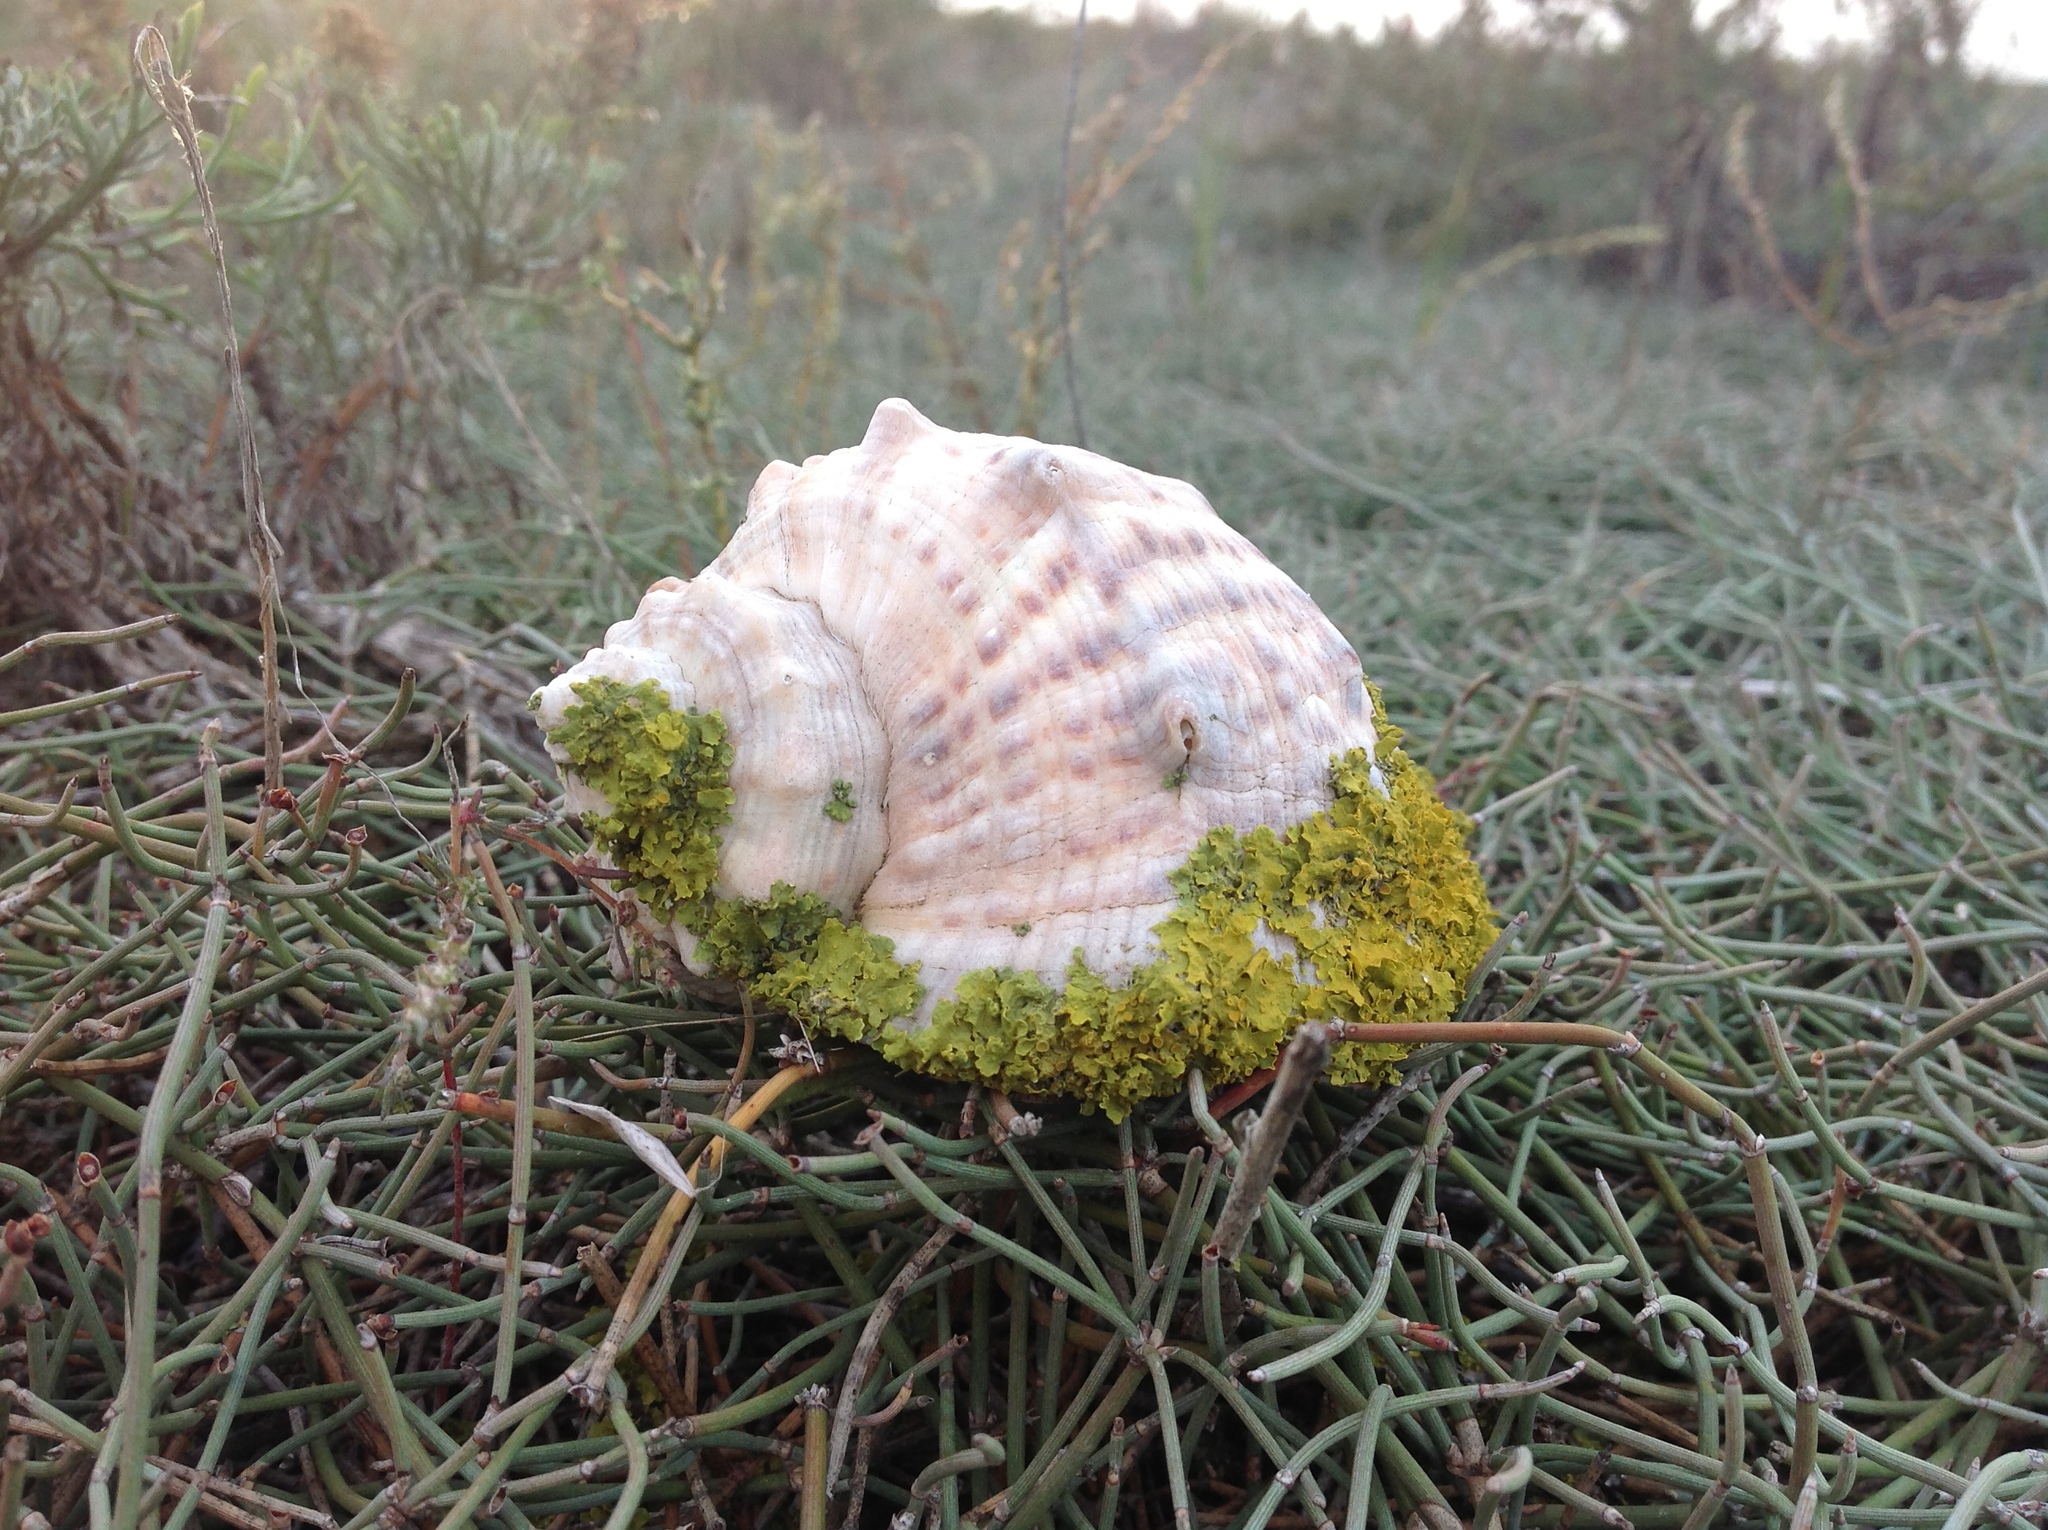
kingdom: Fungi
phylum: Ascomycota
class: Lecanoromycetes
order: Teloschistales
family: Teloschistaceae
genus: Xanthoria
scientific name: Xanthoria parietina
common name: Common orange lichen
